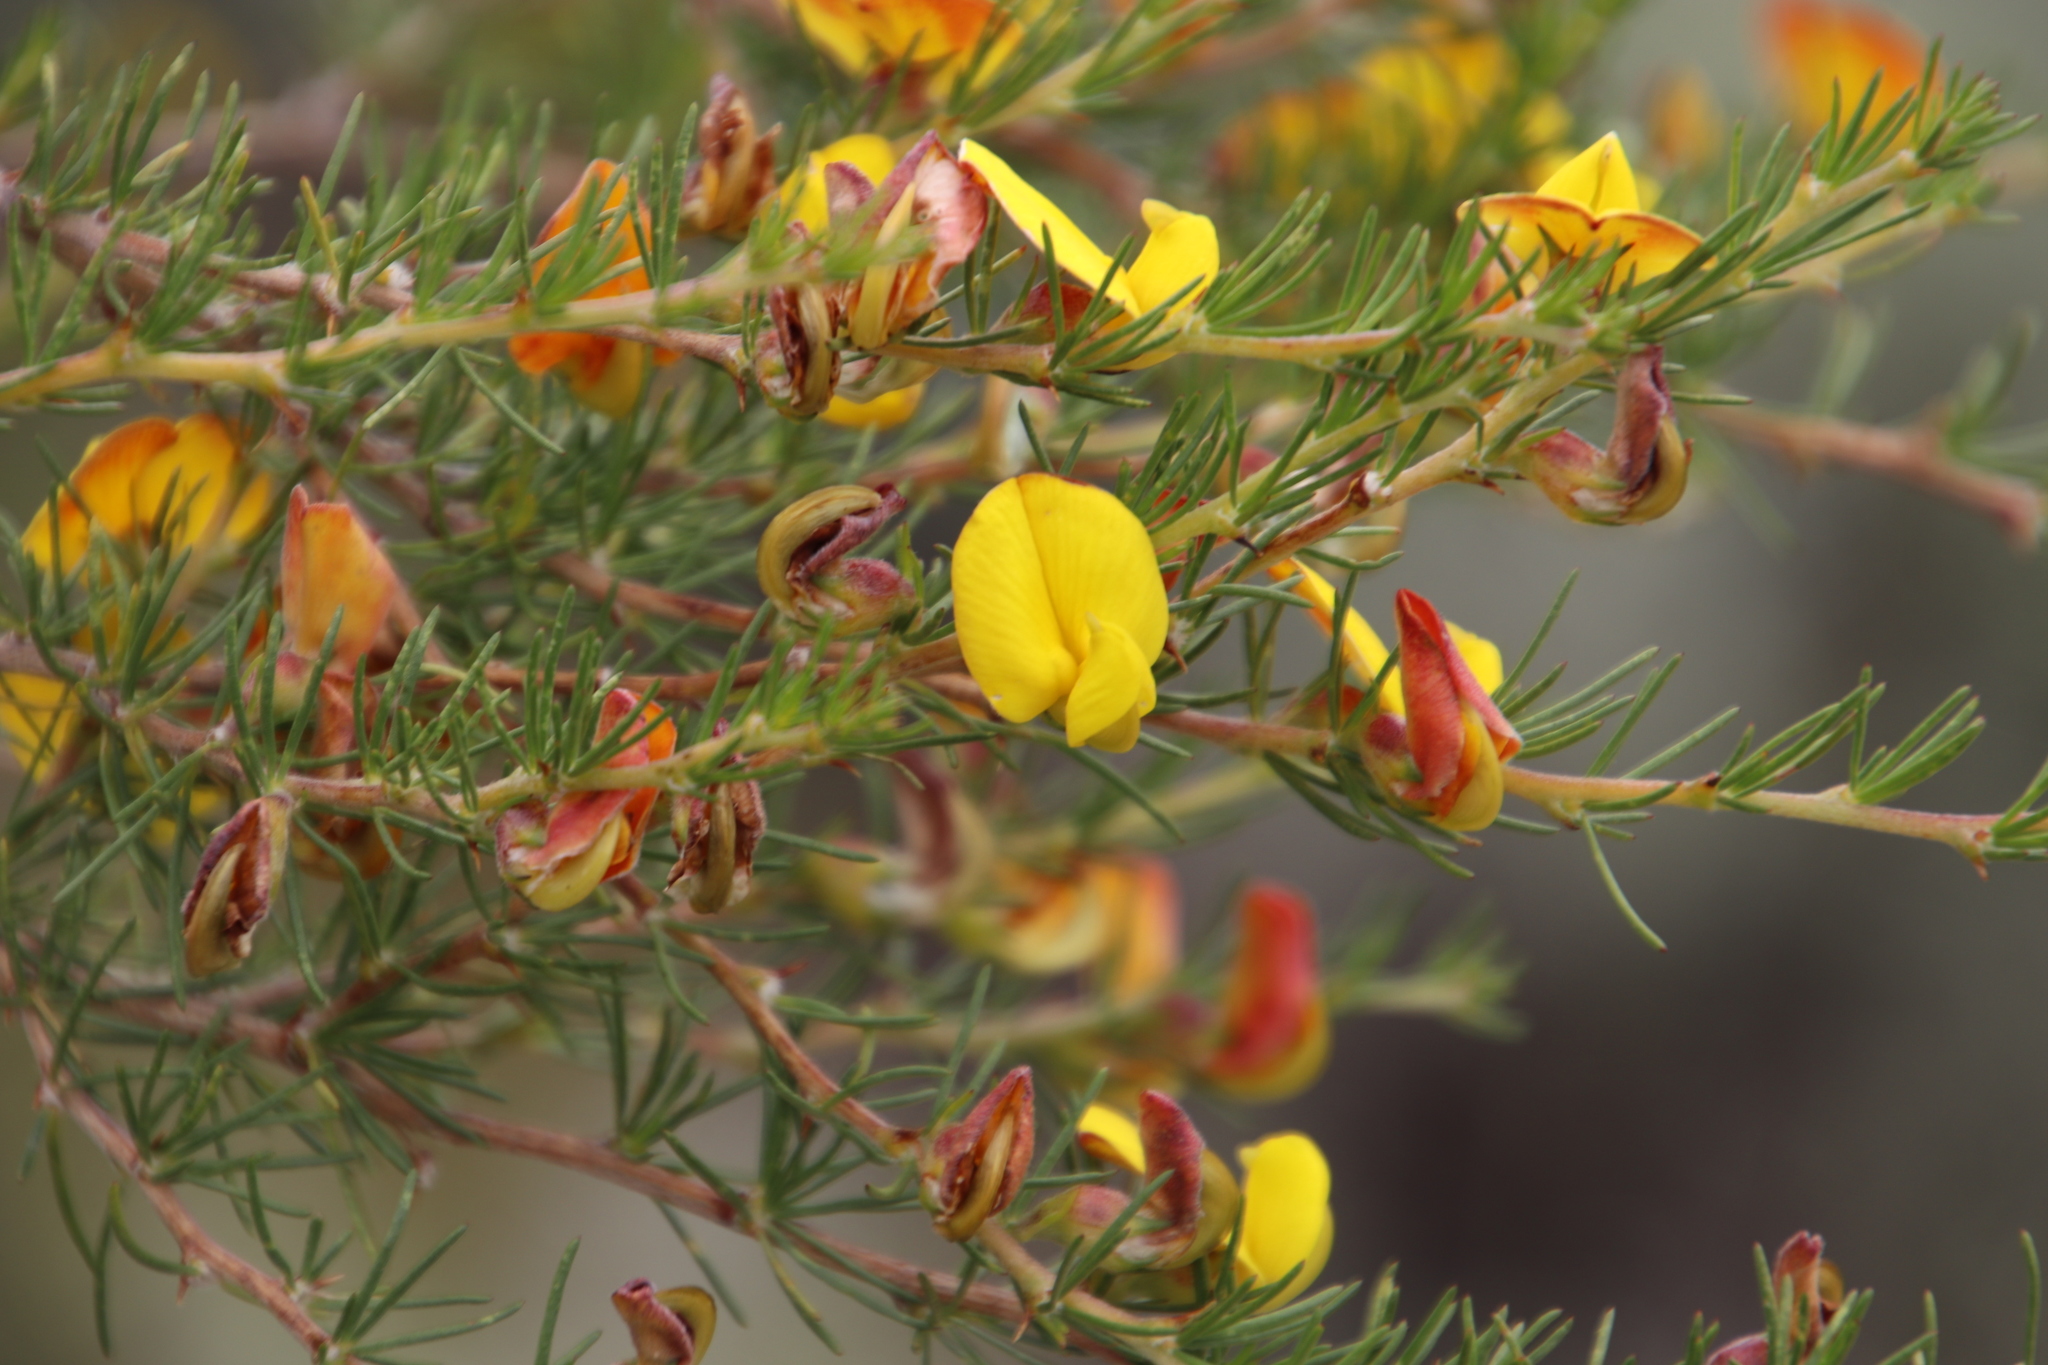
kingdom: Plantae
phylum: Tracheophyta
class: Magnoliopsida
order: Fabales
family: Fabaceae
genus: Aspalathus
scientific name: Aspalathus uniflora
